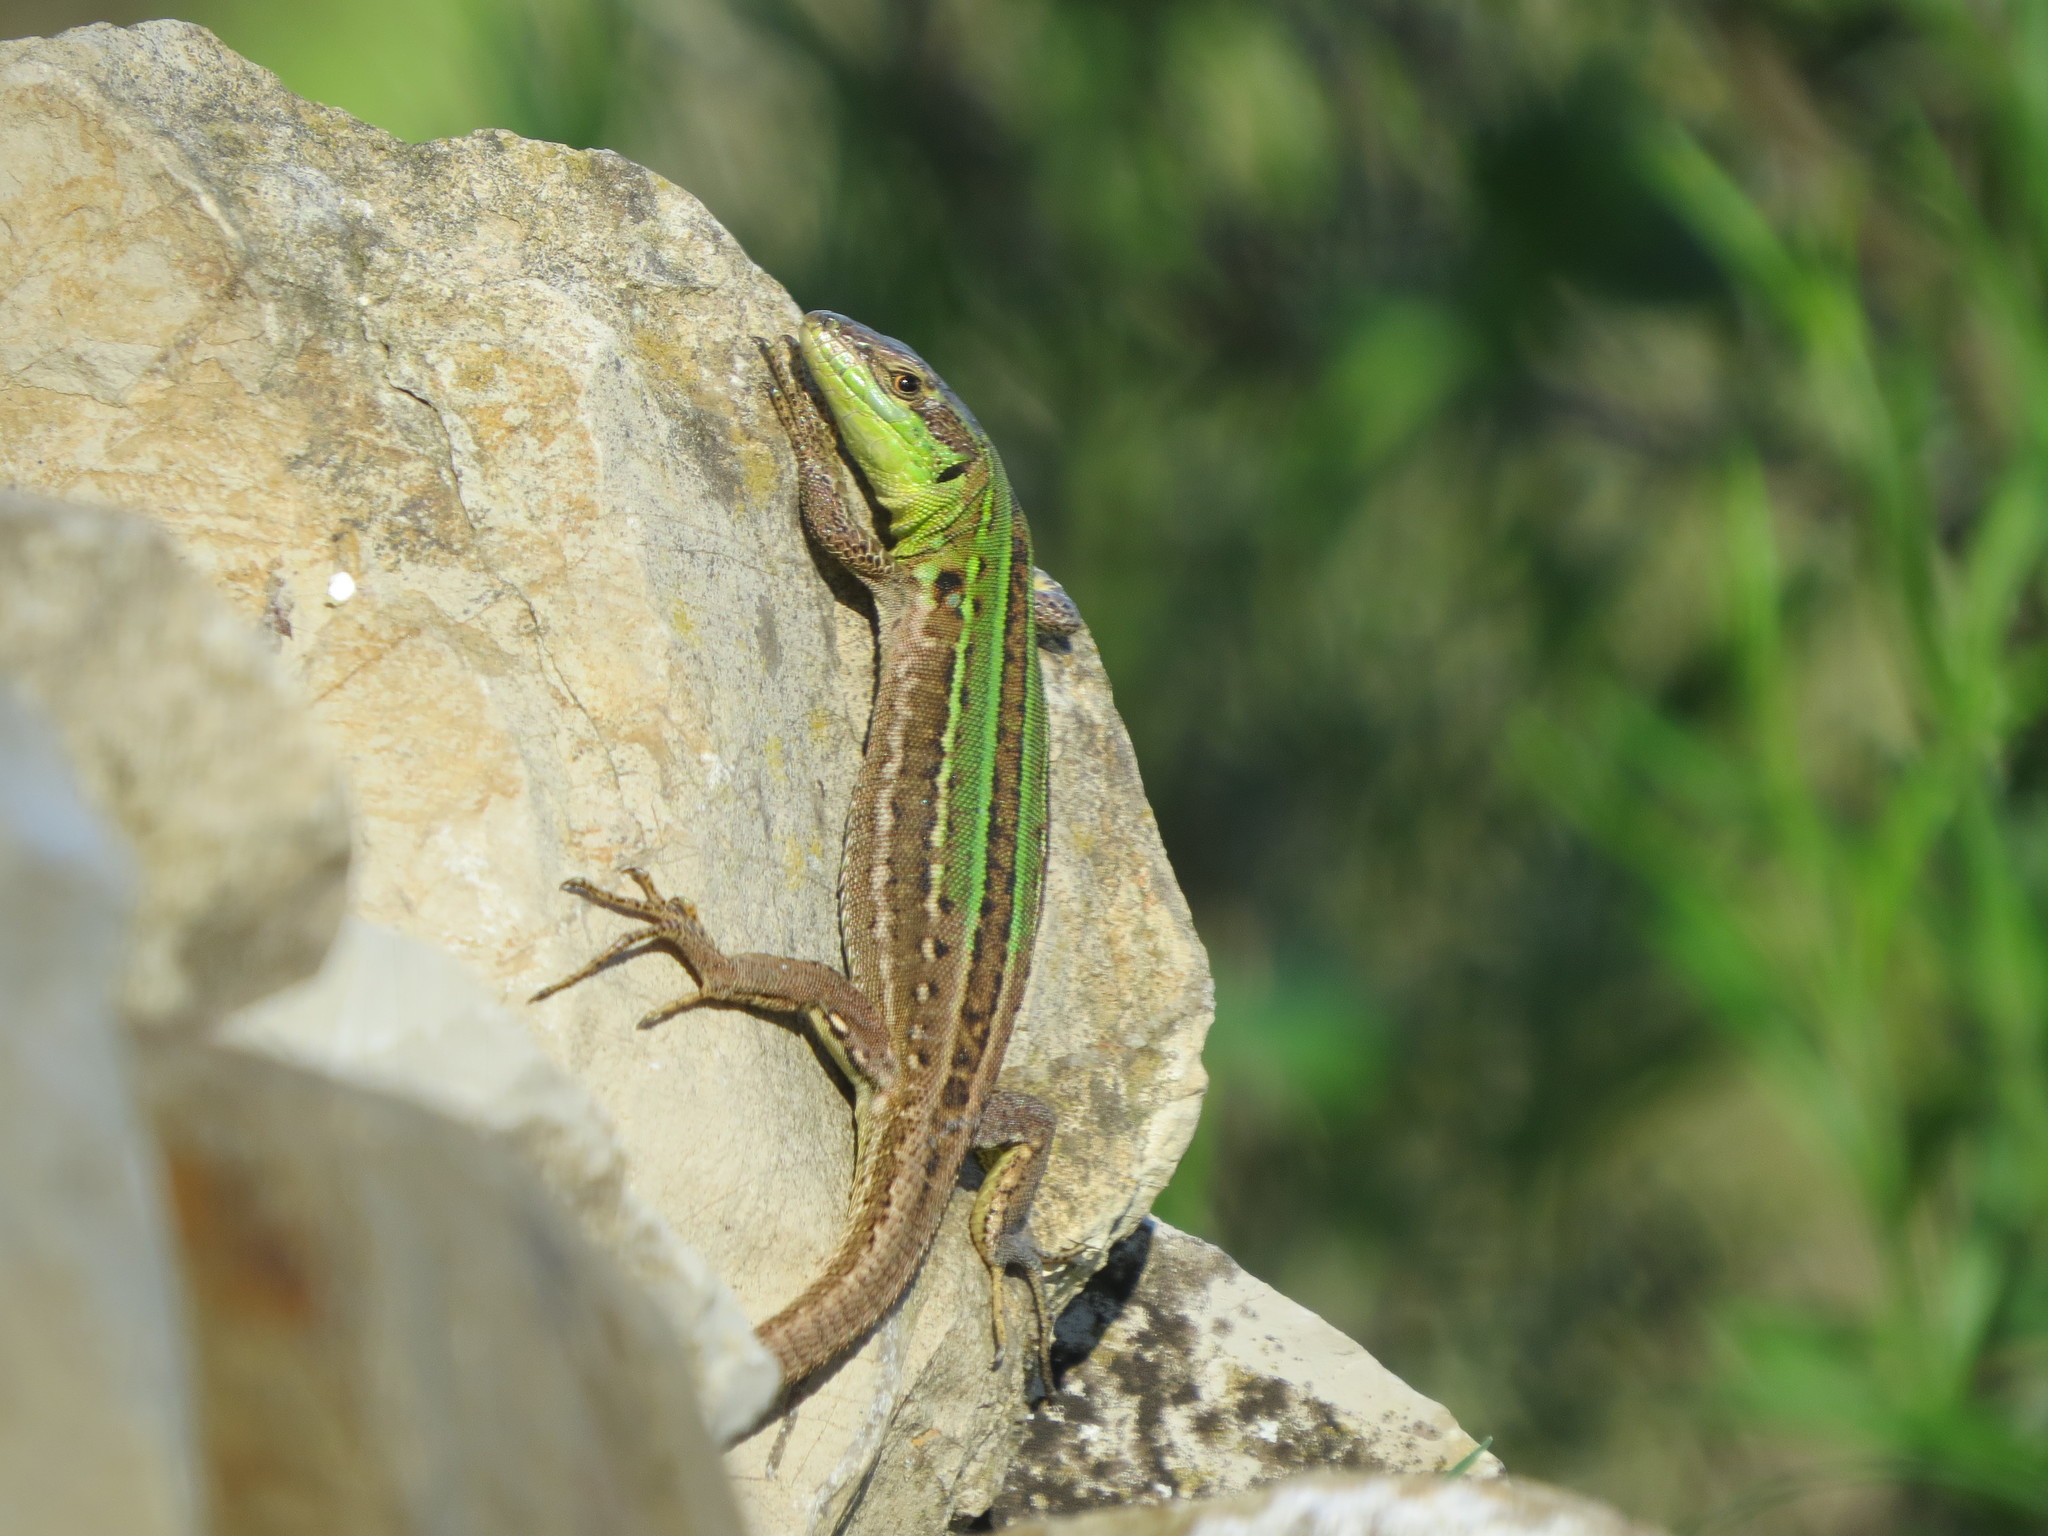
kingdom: Animalia
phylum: Chordata
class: Squamata
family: Lacertidae
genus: Podarcis
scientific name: Podarcis siculus
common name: Italian wall lizard
